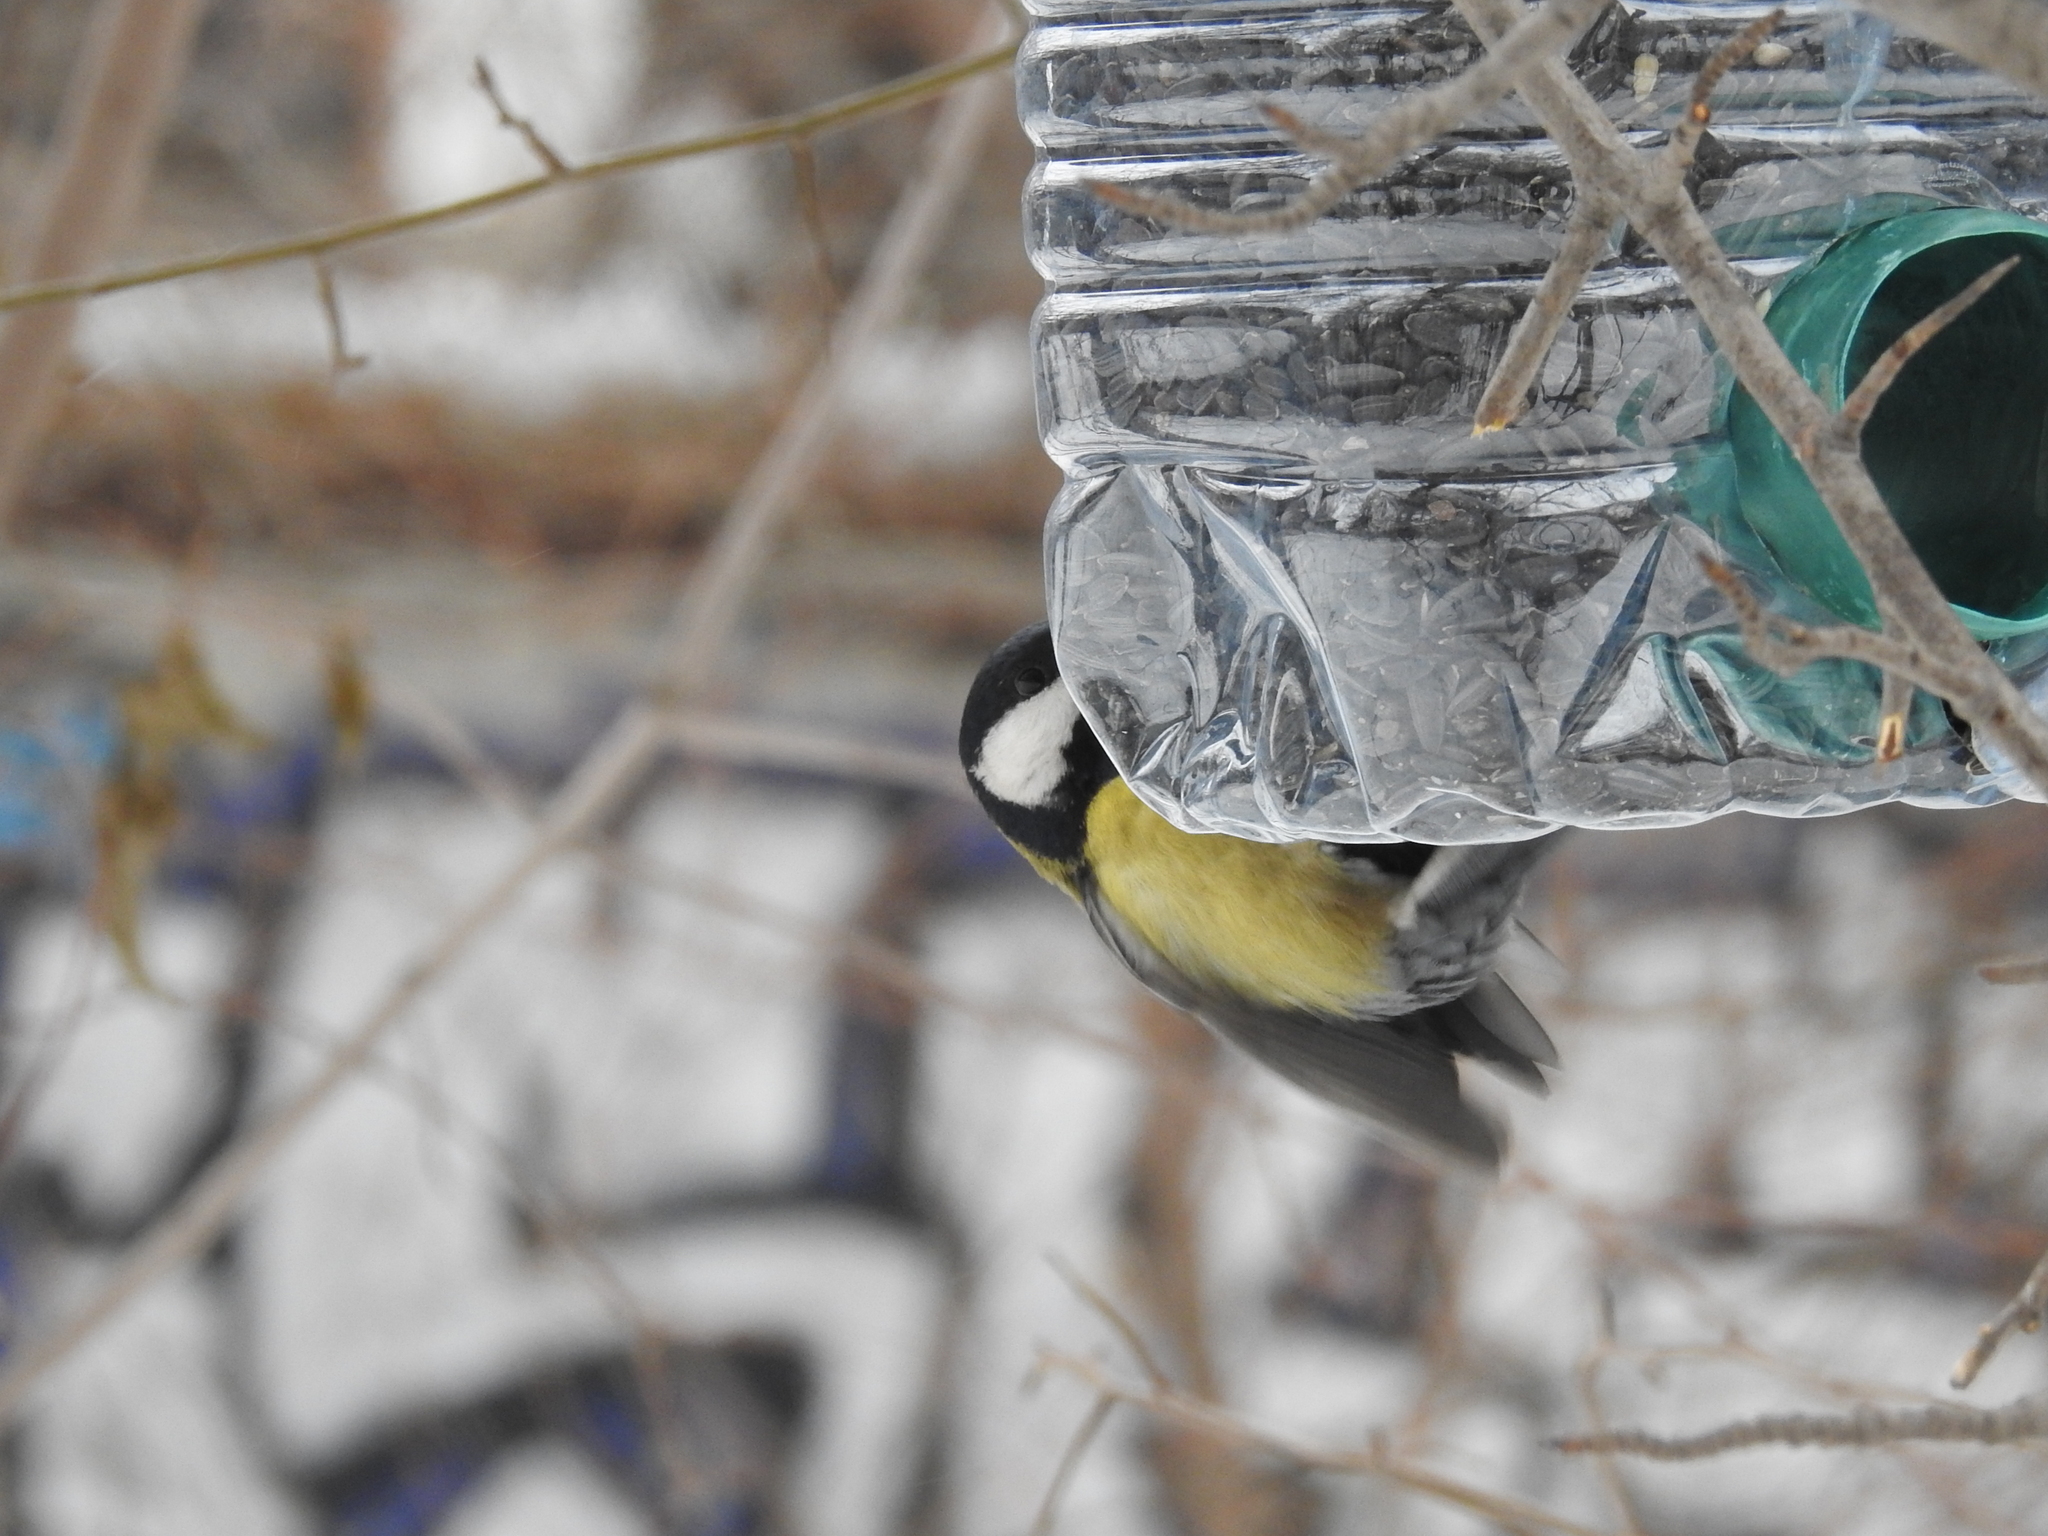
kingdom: Animalia
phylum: Chordata
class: Aves
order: Passeriformes
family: Paridae
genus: Parus
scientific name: Parus major
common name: Great tit
